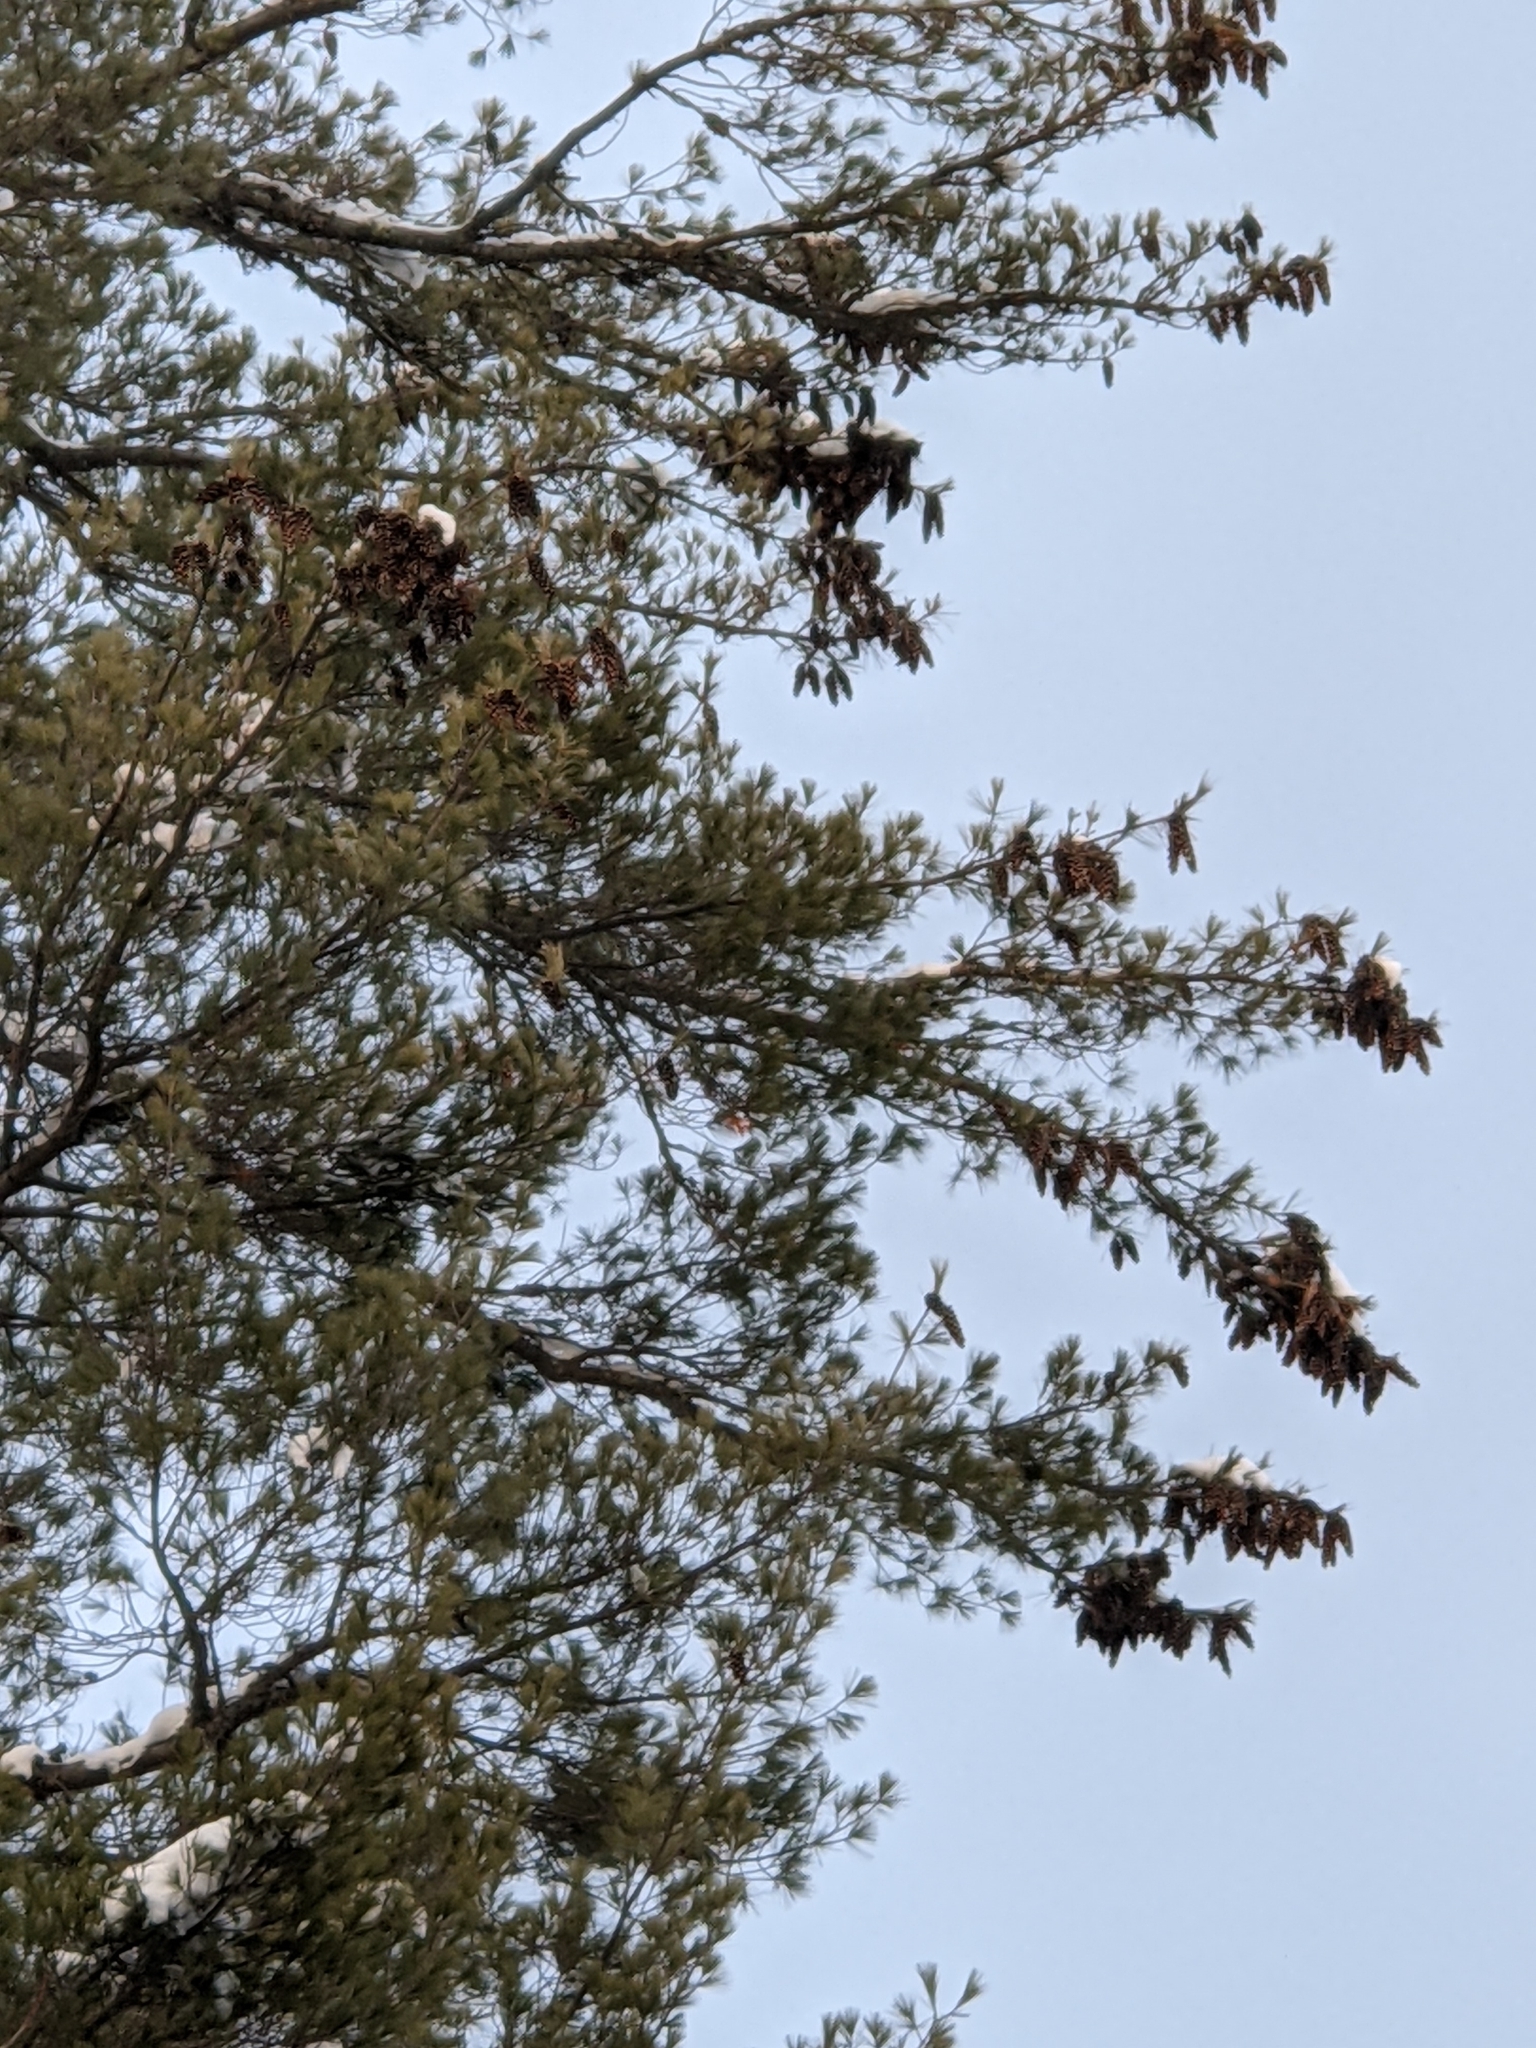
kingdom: Plantae
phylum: Tracheophyta
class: Pinopsida
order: Pinales
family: Pinaceae
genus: Pinus
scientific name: Pinus strobus
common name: Weymouth pine
